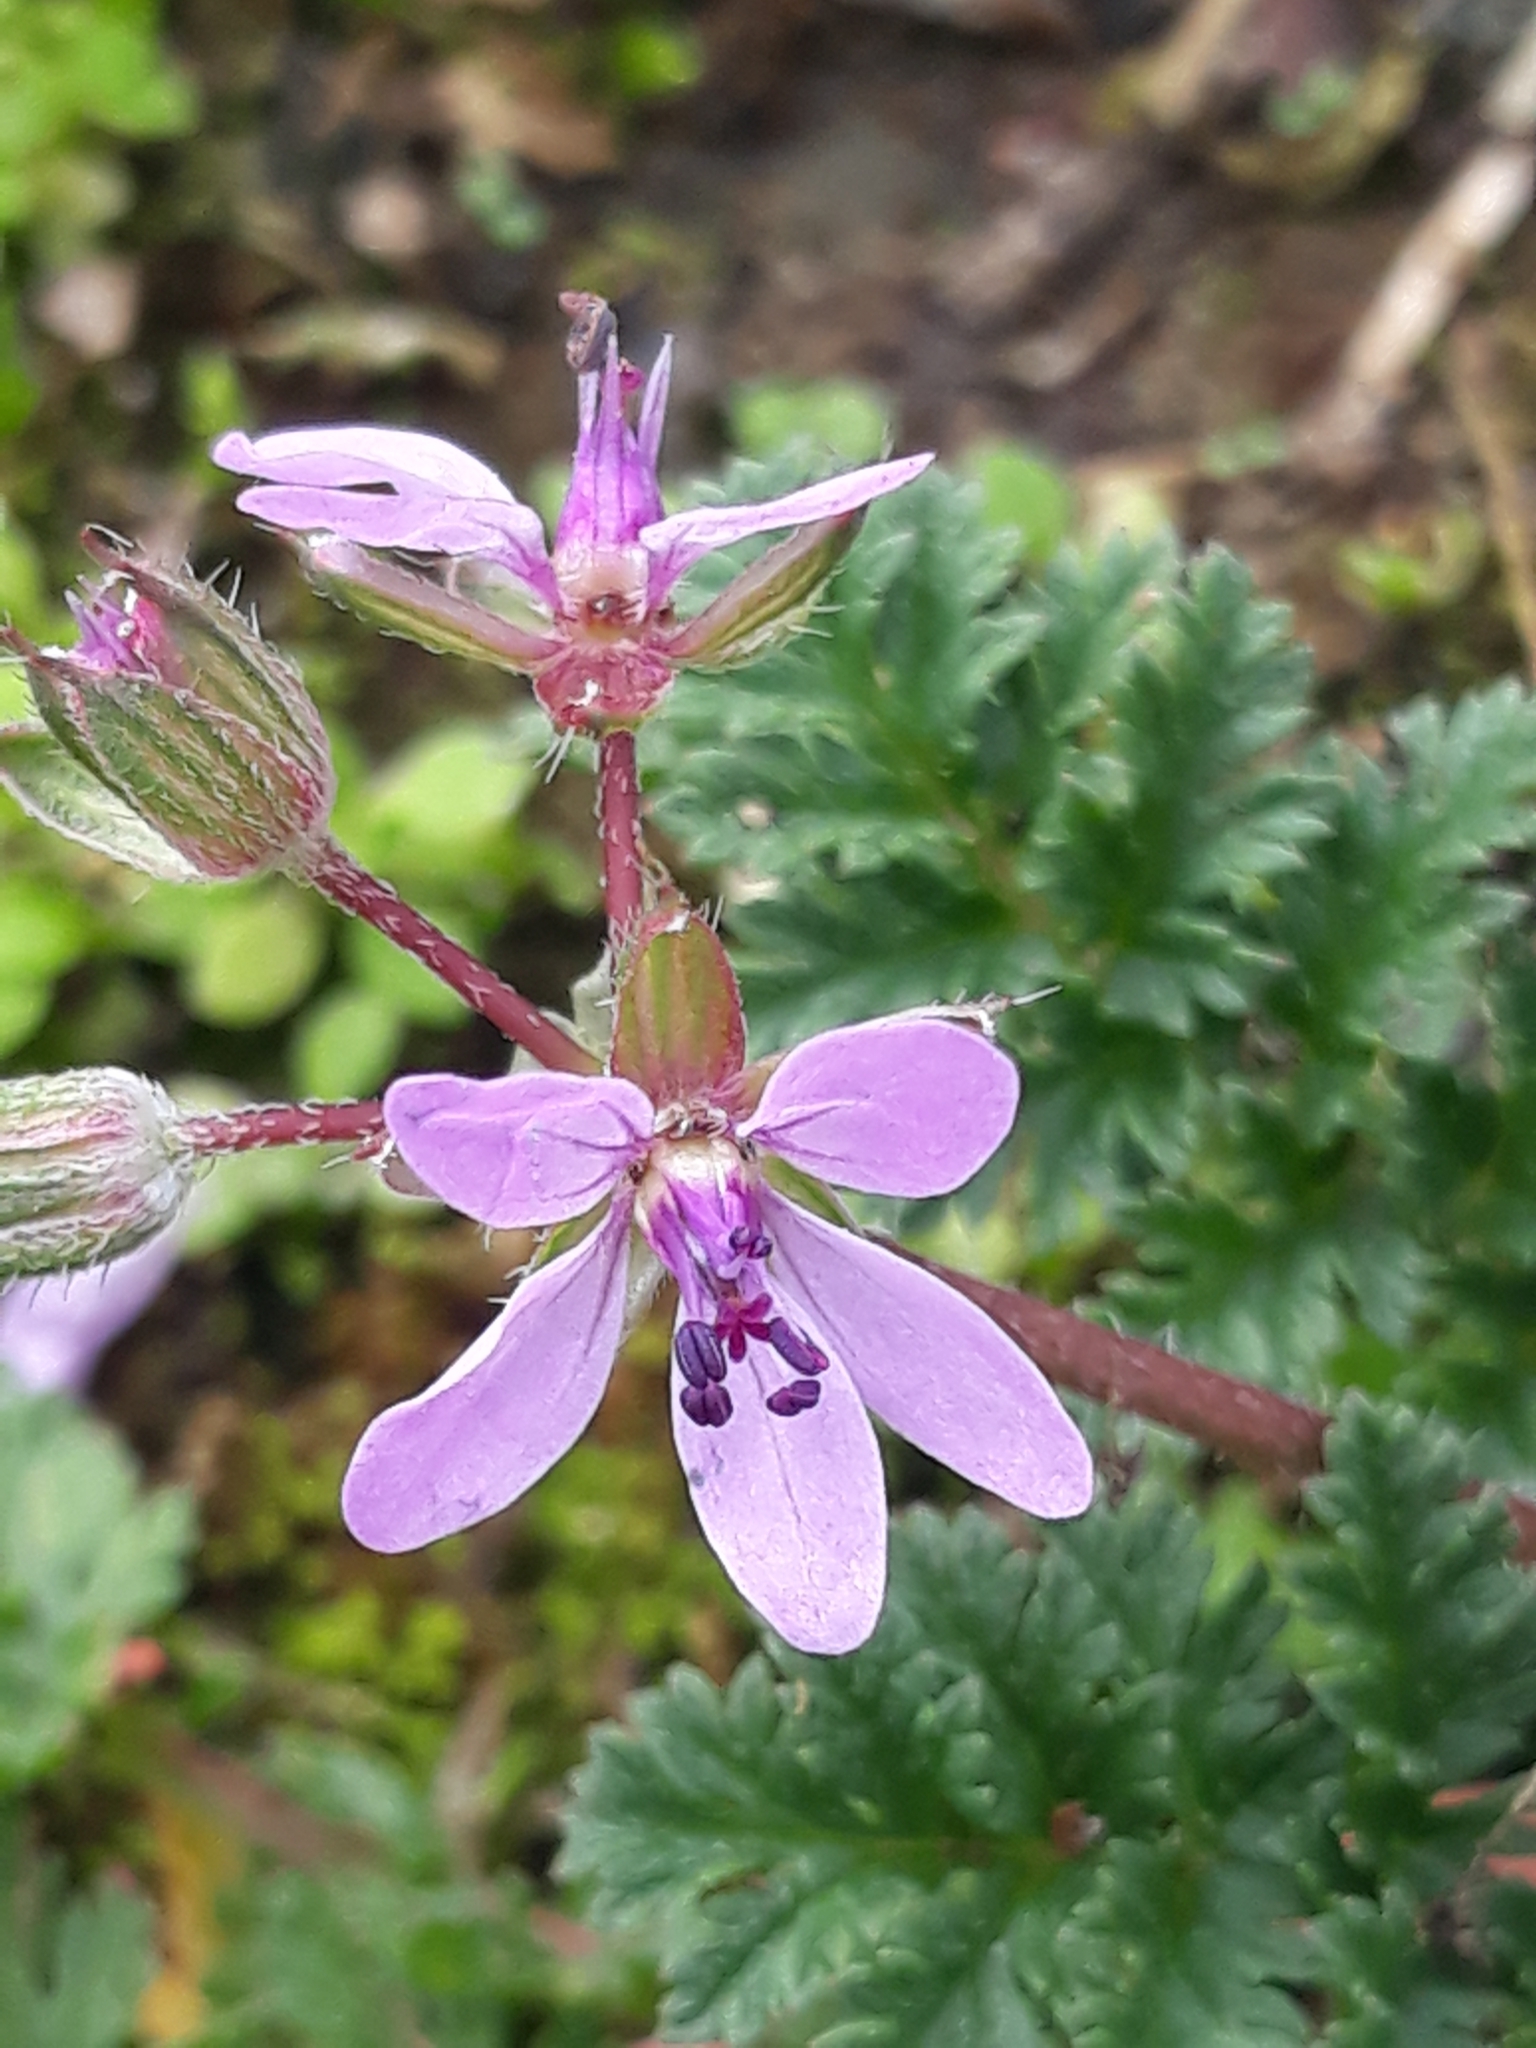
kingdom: Plantae
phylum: Tracheophyta
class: Magnoliopsida
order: Geraniales
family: Geraniaceae
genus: Erodium
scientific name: Erodium cicutarium
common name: Common stork's-bill
